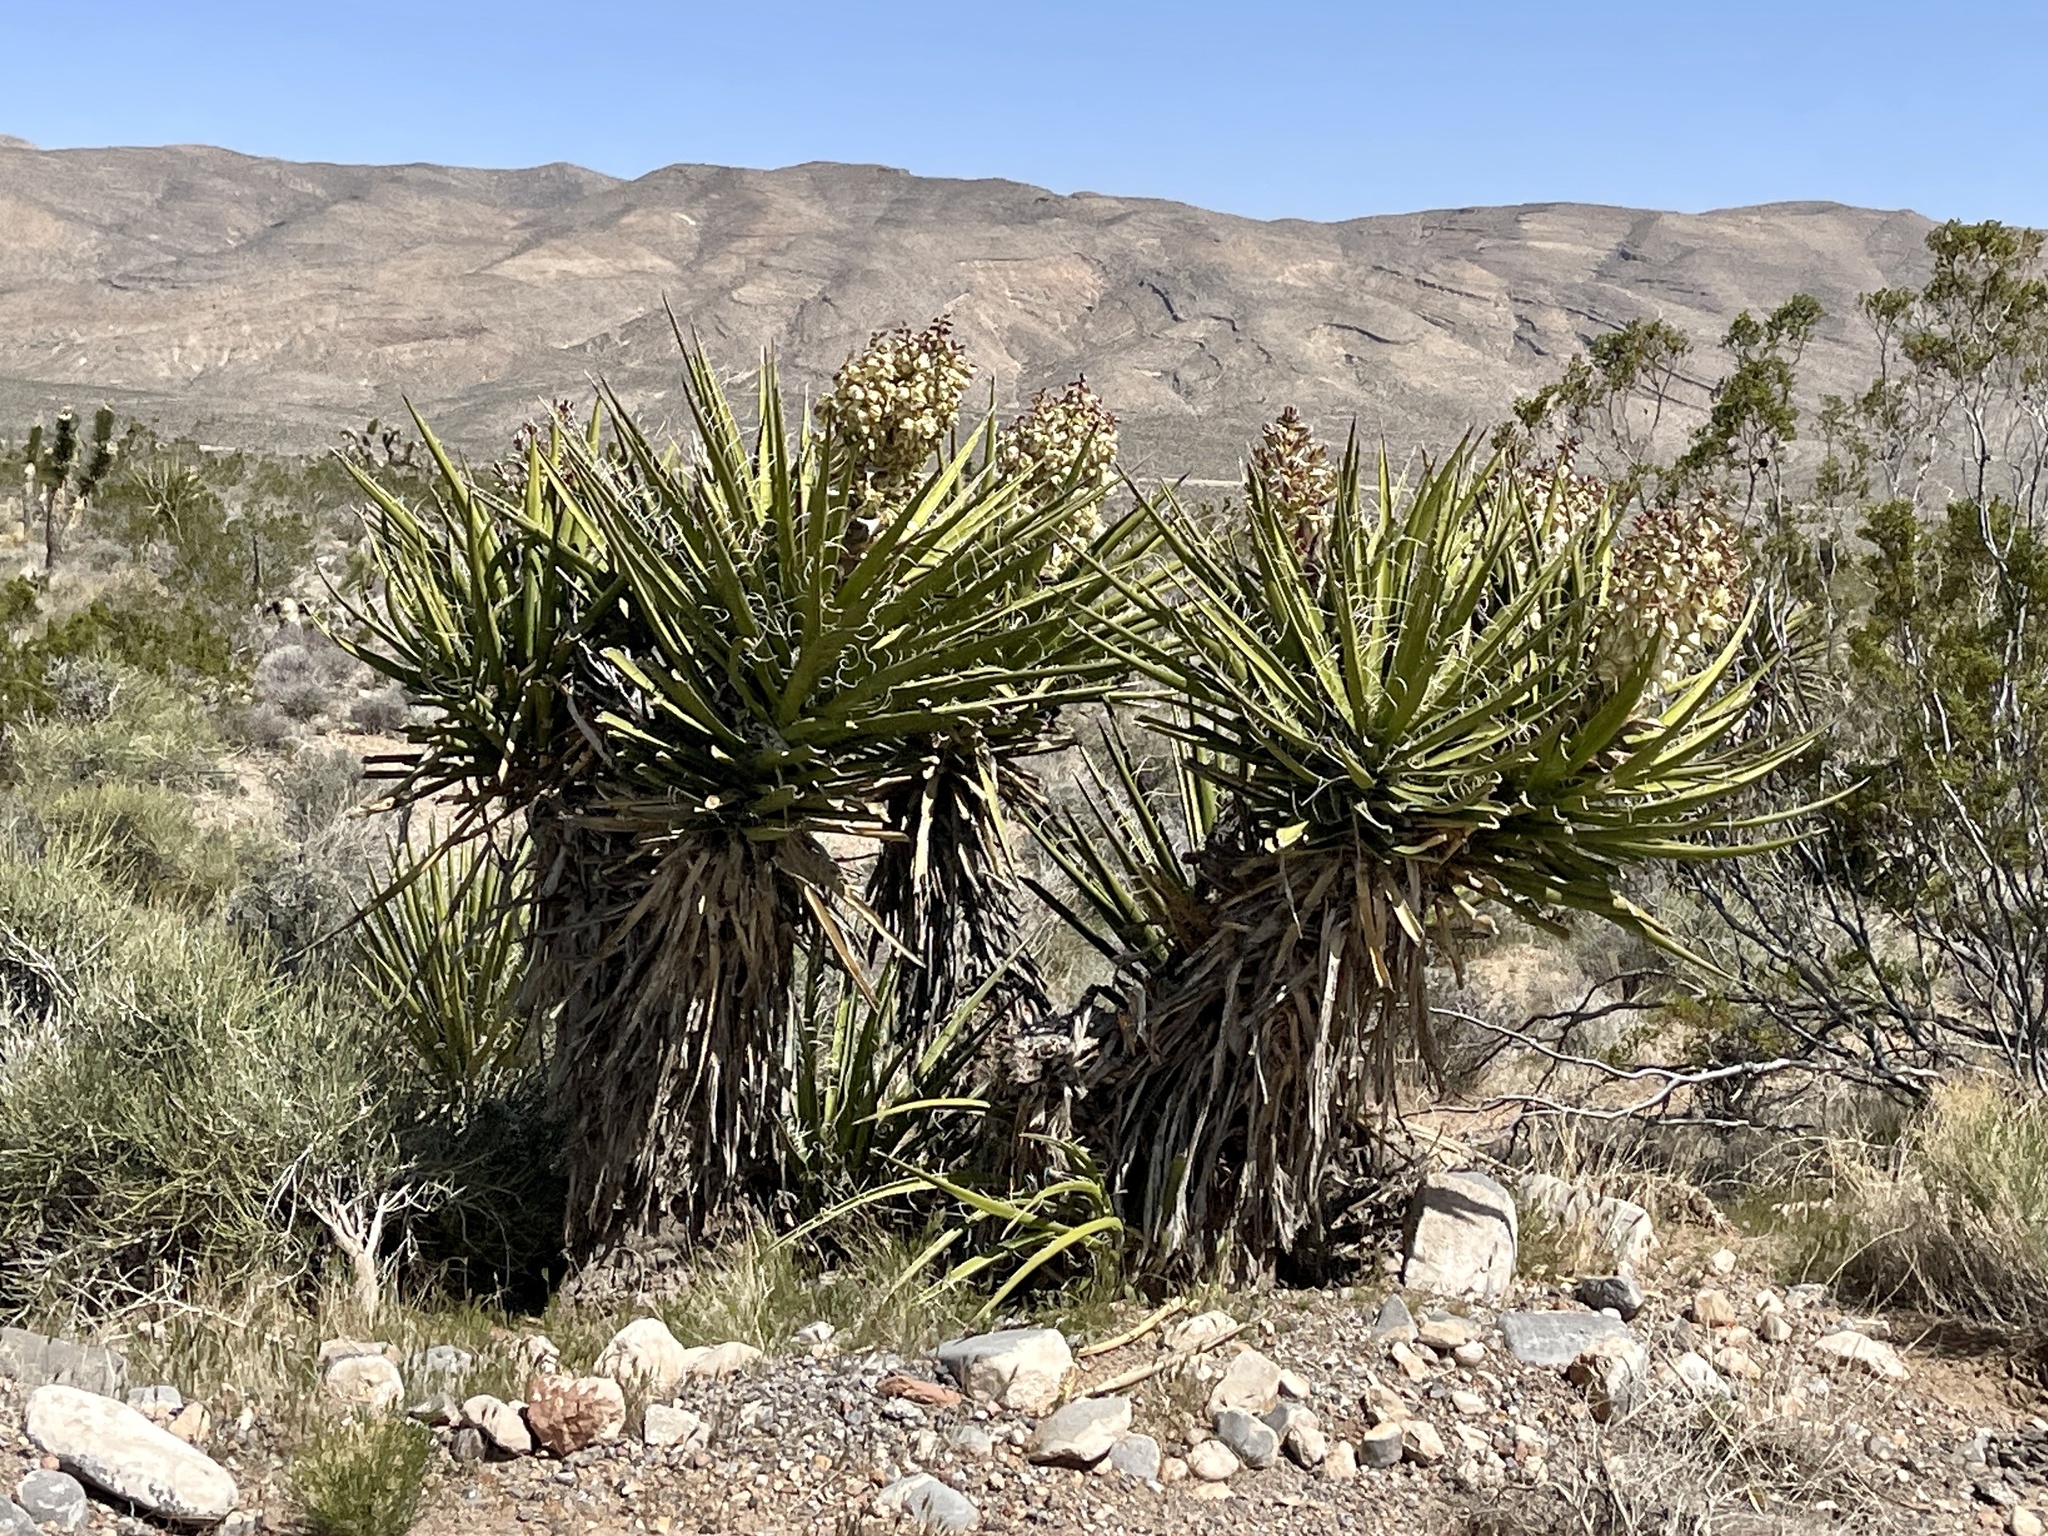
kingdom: Plantae
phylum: Tracheophyta
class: Liliopsida
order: Asparagales
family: Asparagaceae
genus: Yucca
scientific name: Yucca schidigera
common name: Mojave yucca
